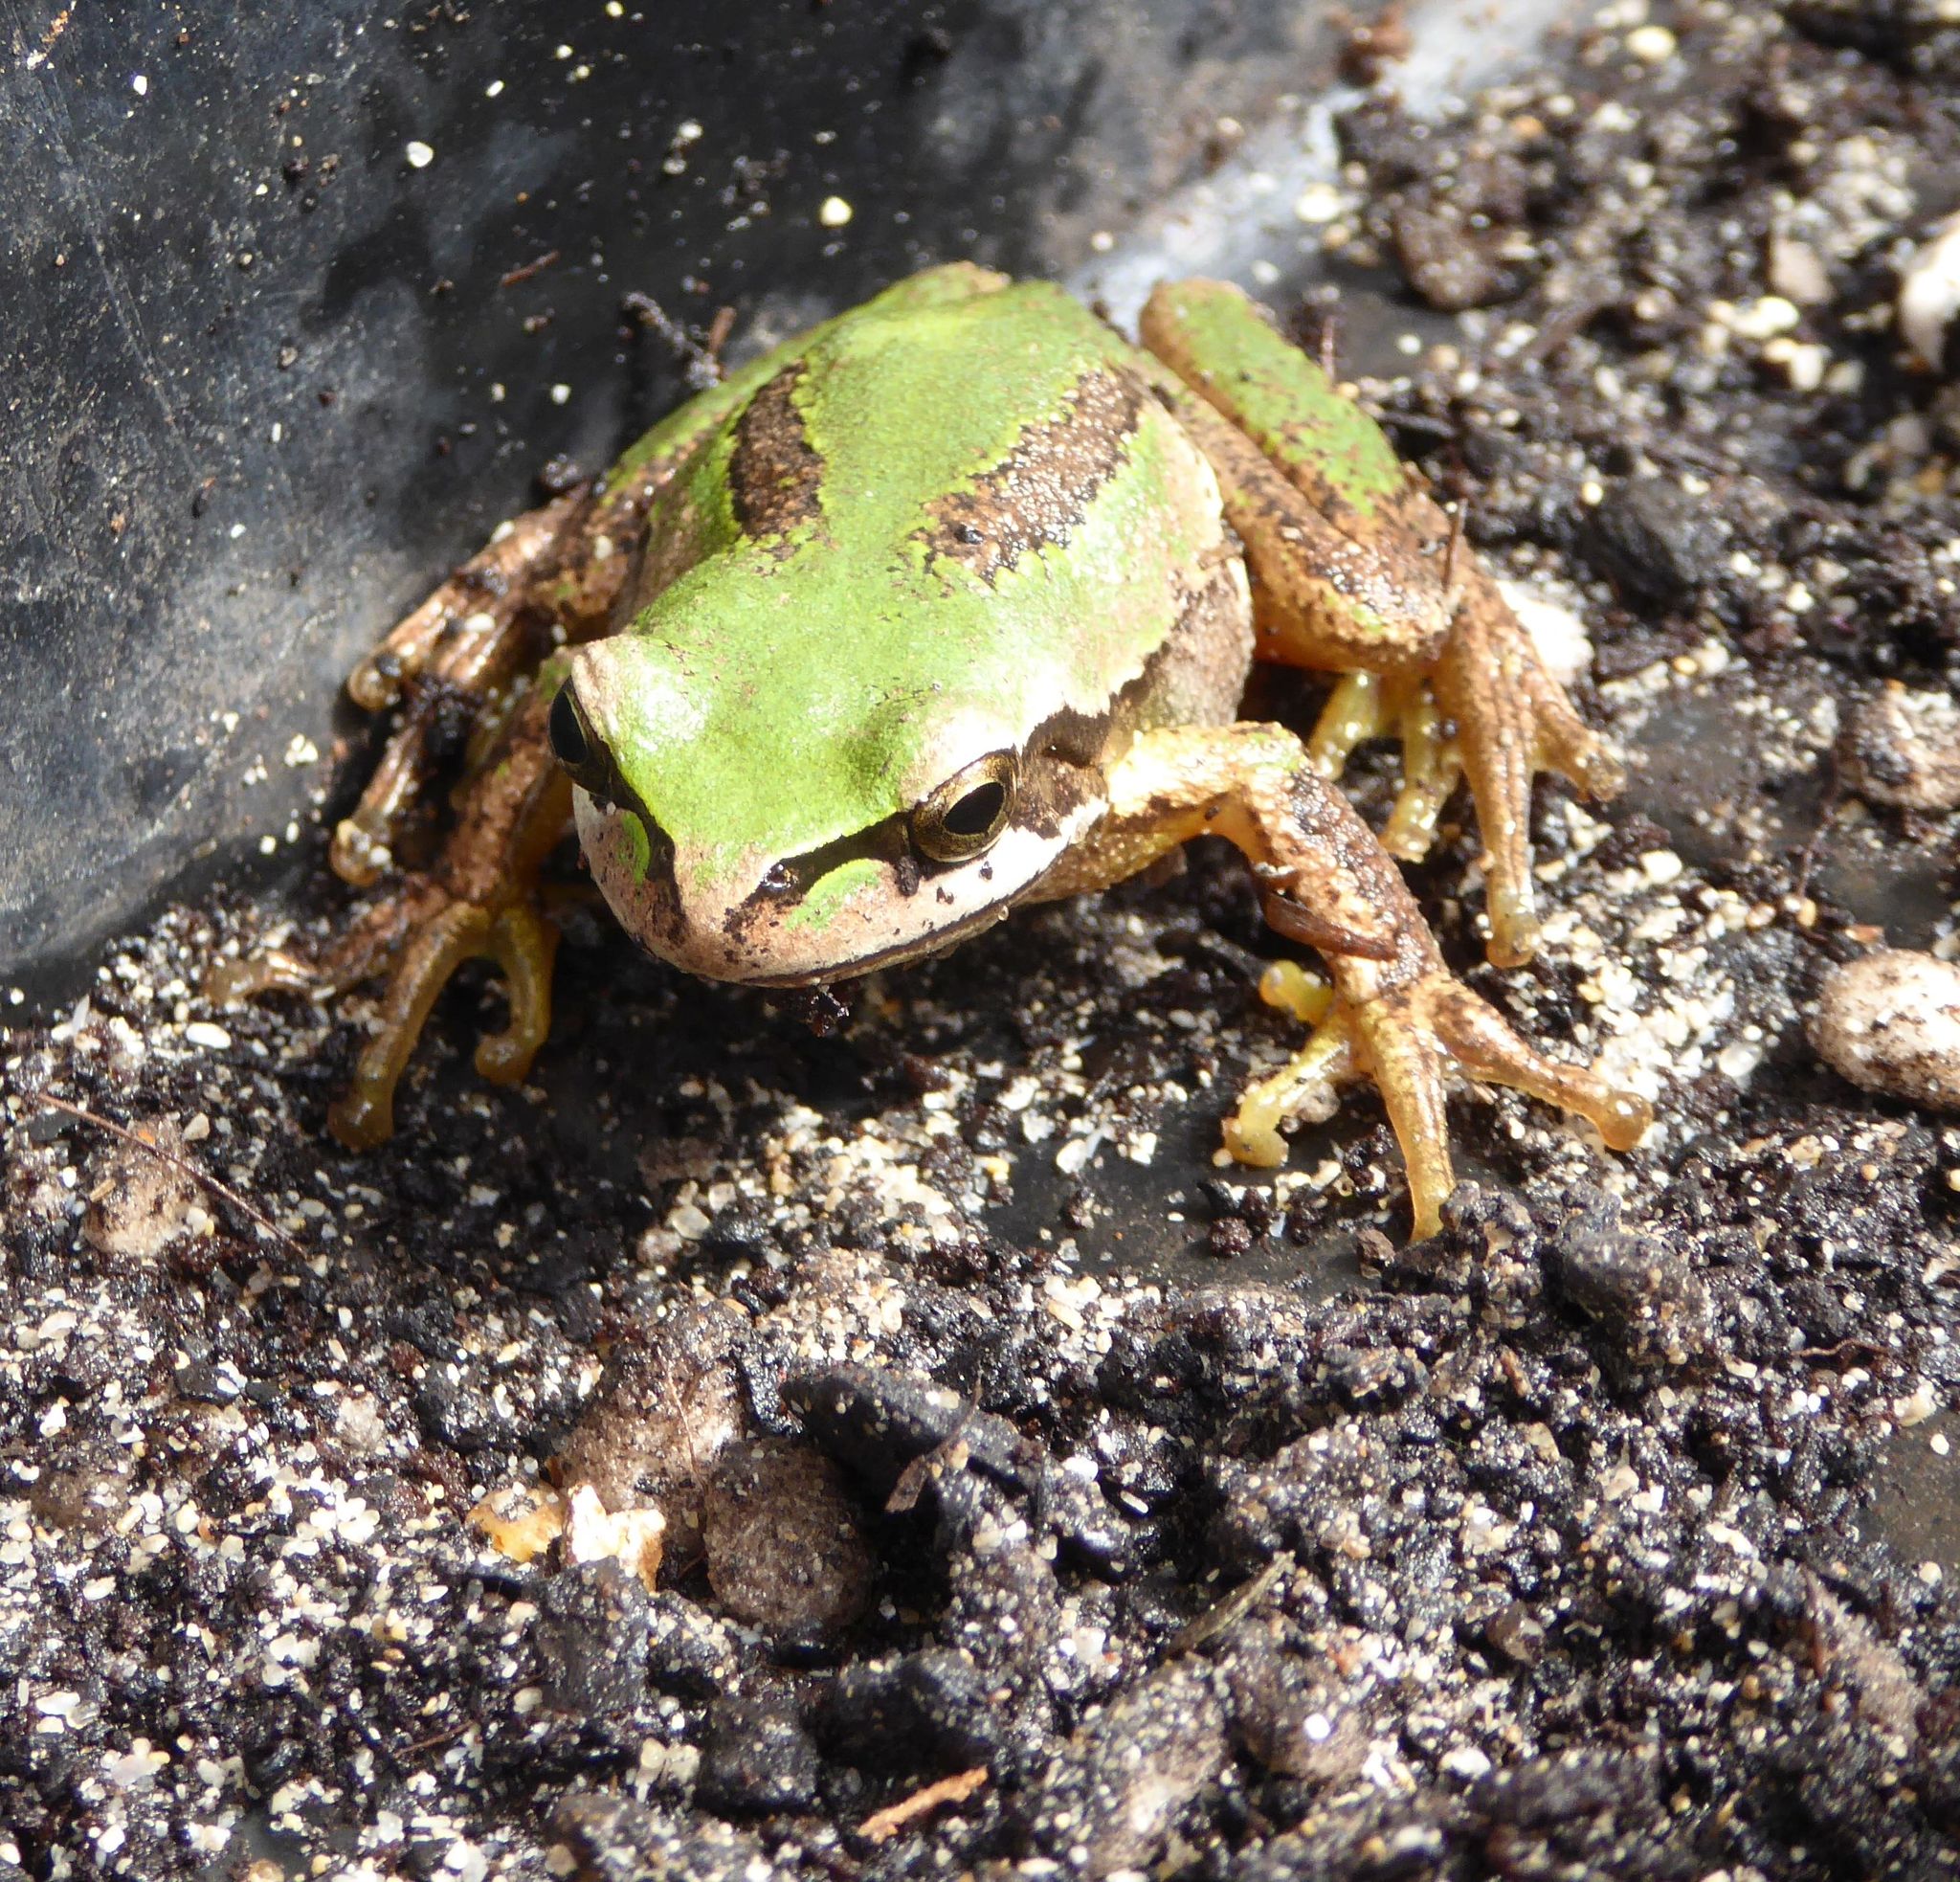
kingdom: Animalia
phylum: Chordata
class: Amphibia
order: Anura
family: Pelodryadidae
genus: Litoria
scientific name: Litoria ewingii
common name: Southern brown tree frog
